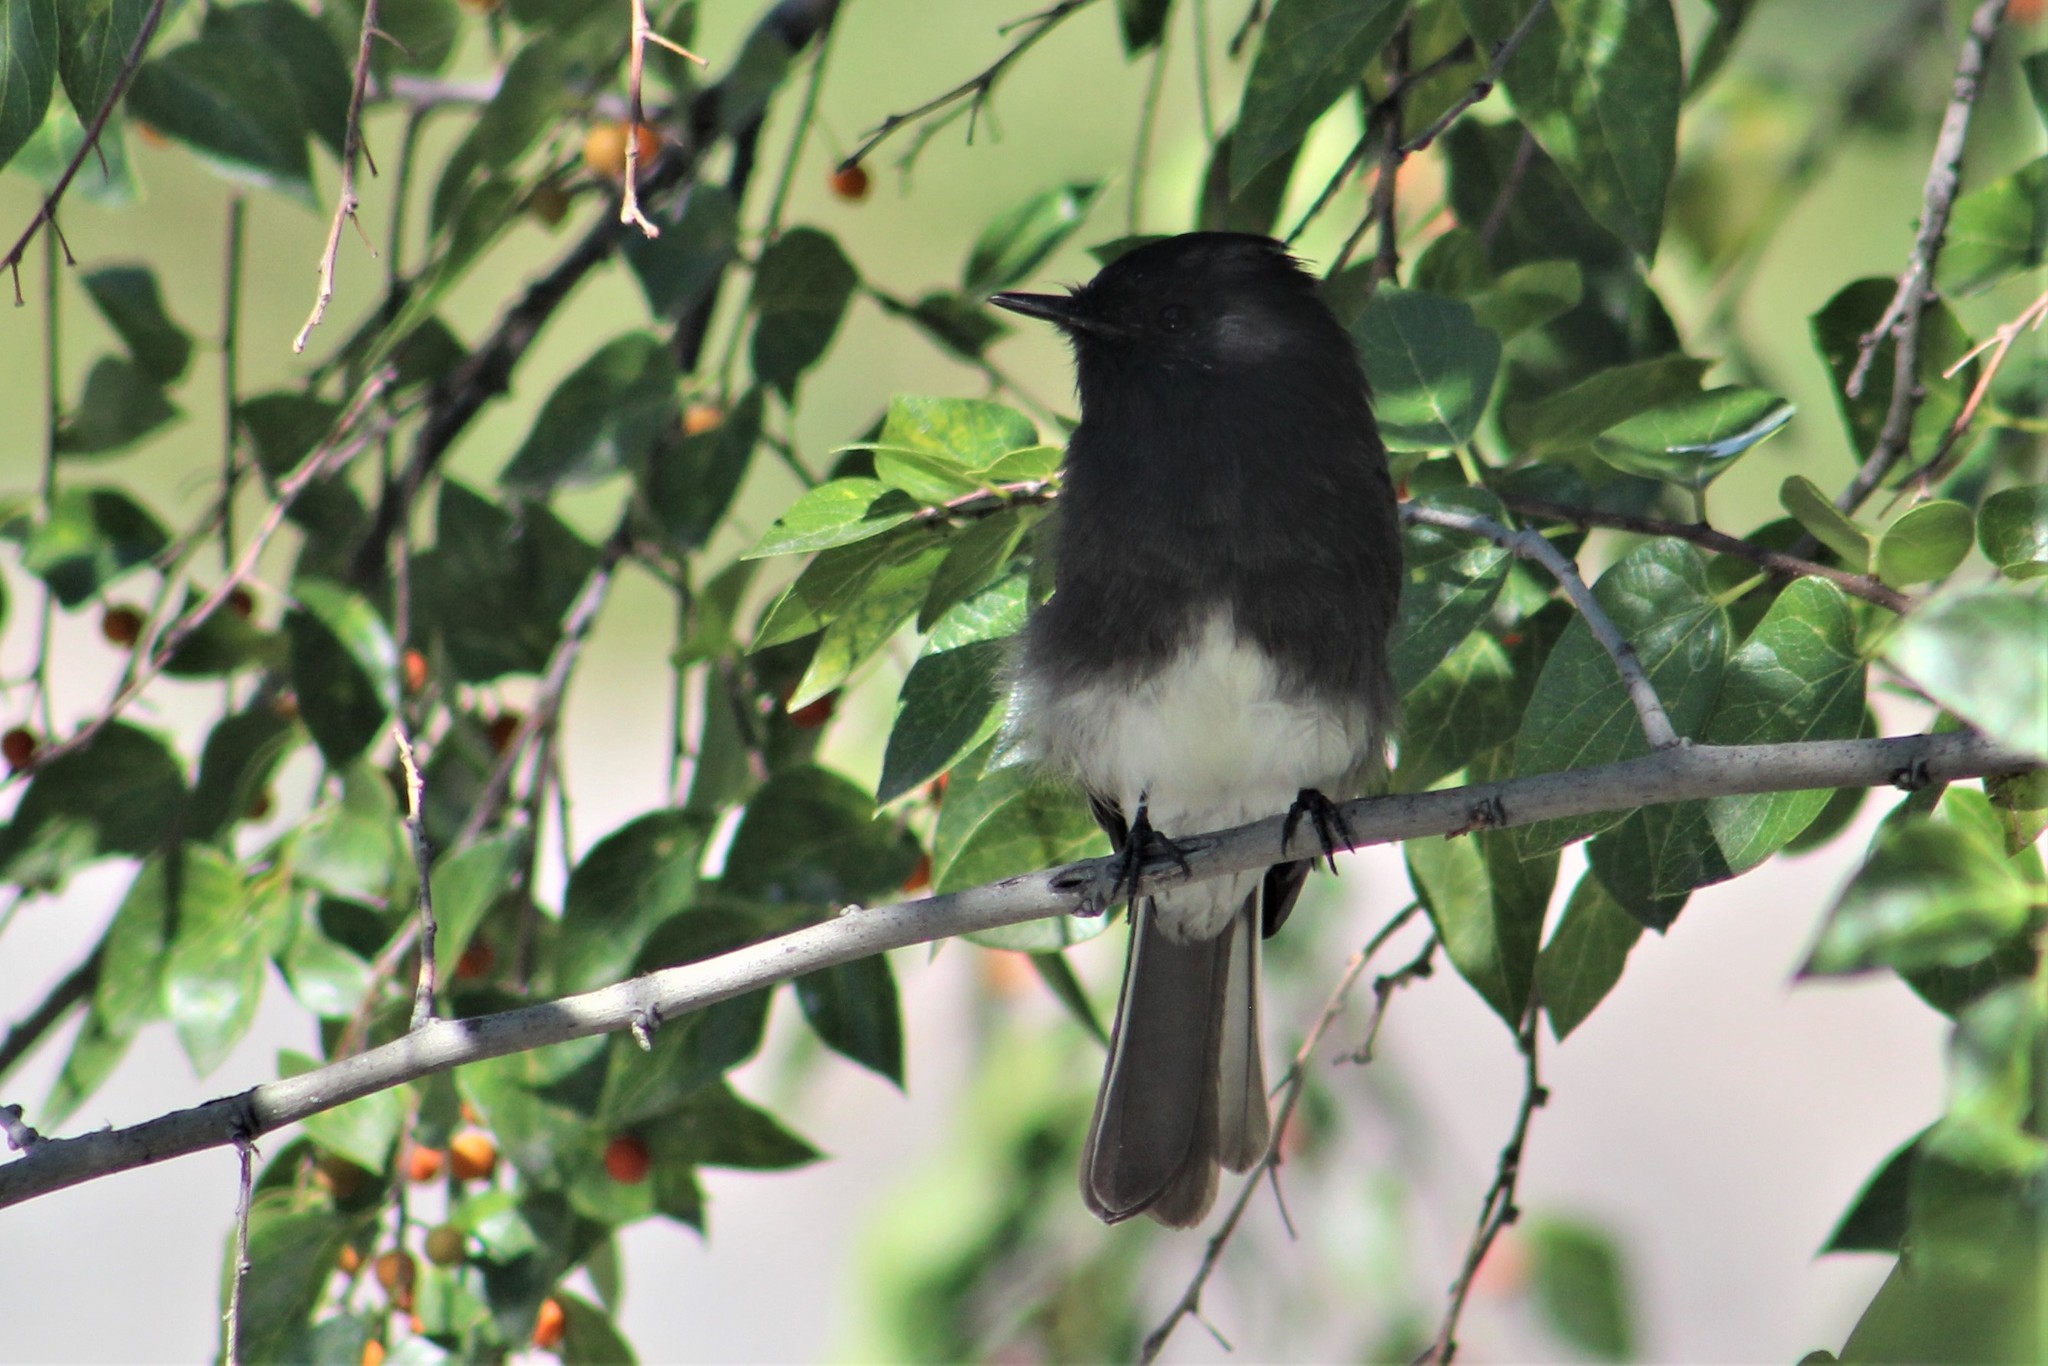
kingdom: Animalia
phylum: Chordata
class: Aves
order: Passeriformes
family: Tyrannidae
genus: Sayornis
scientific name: Sayornis nigricans
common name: Black phoebe
